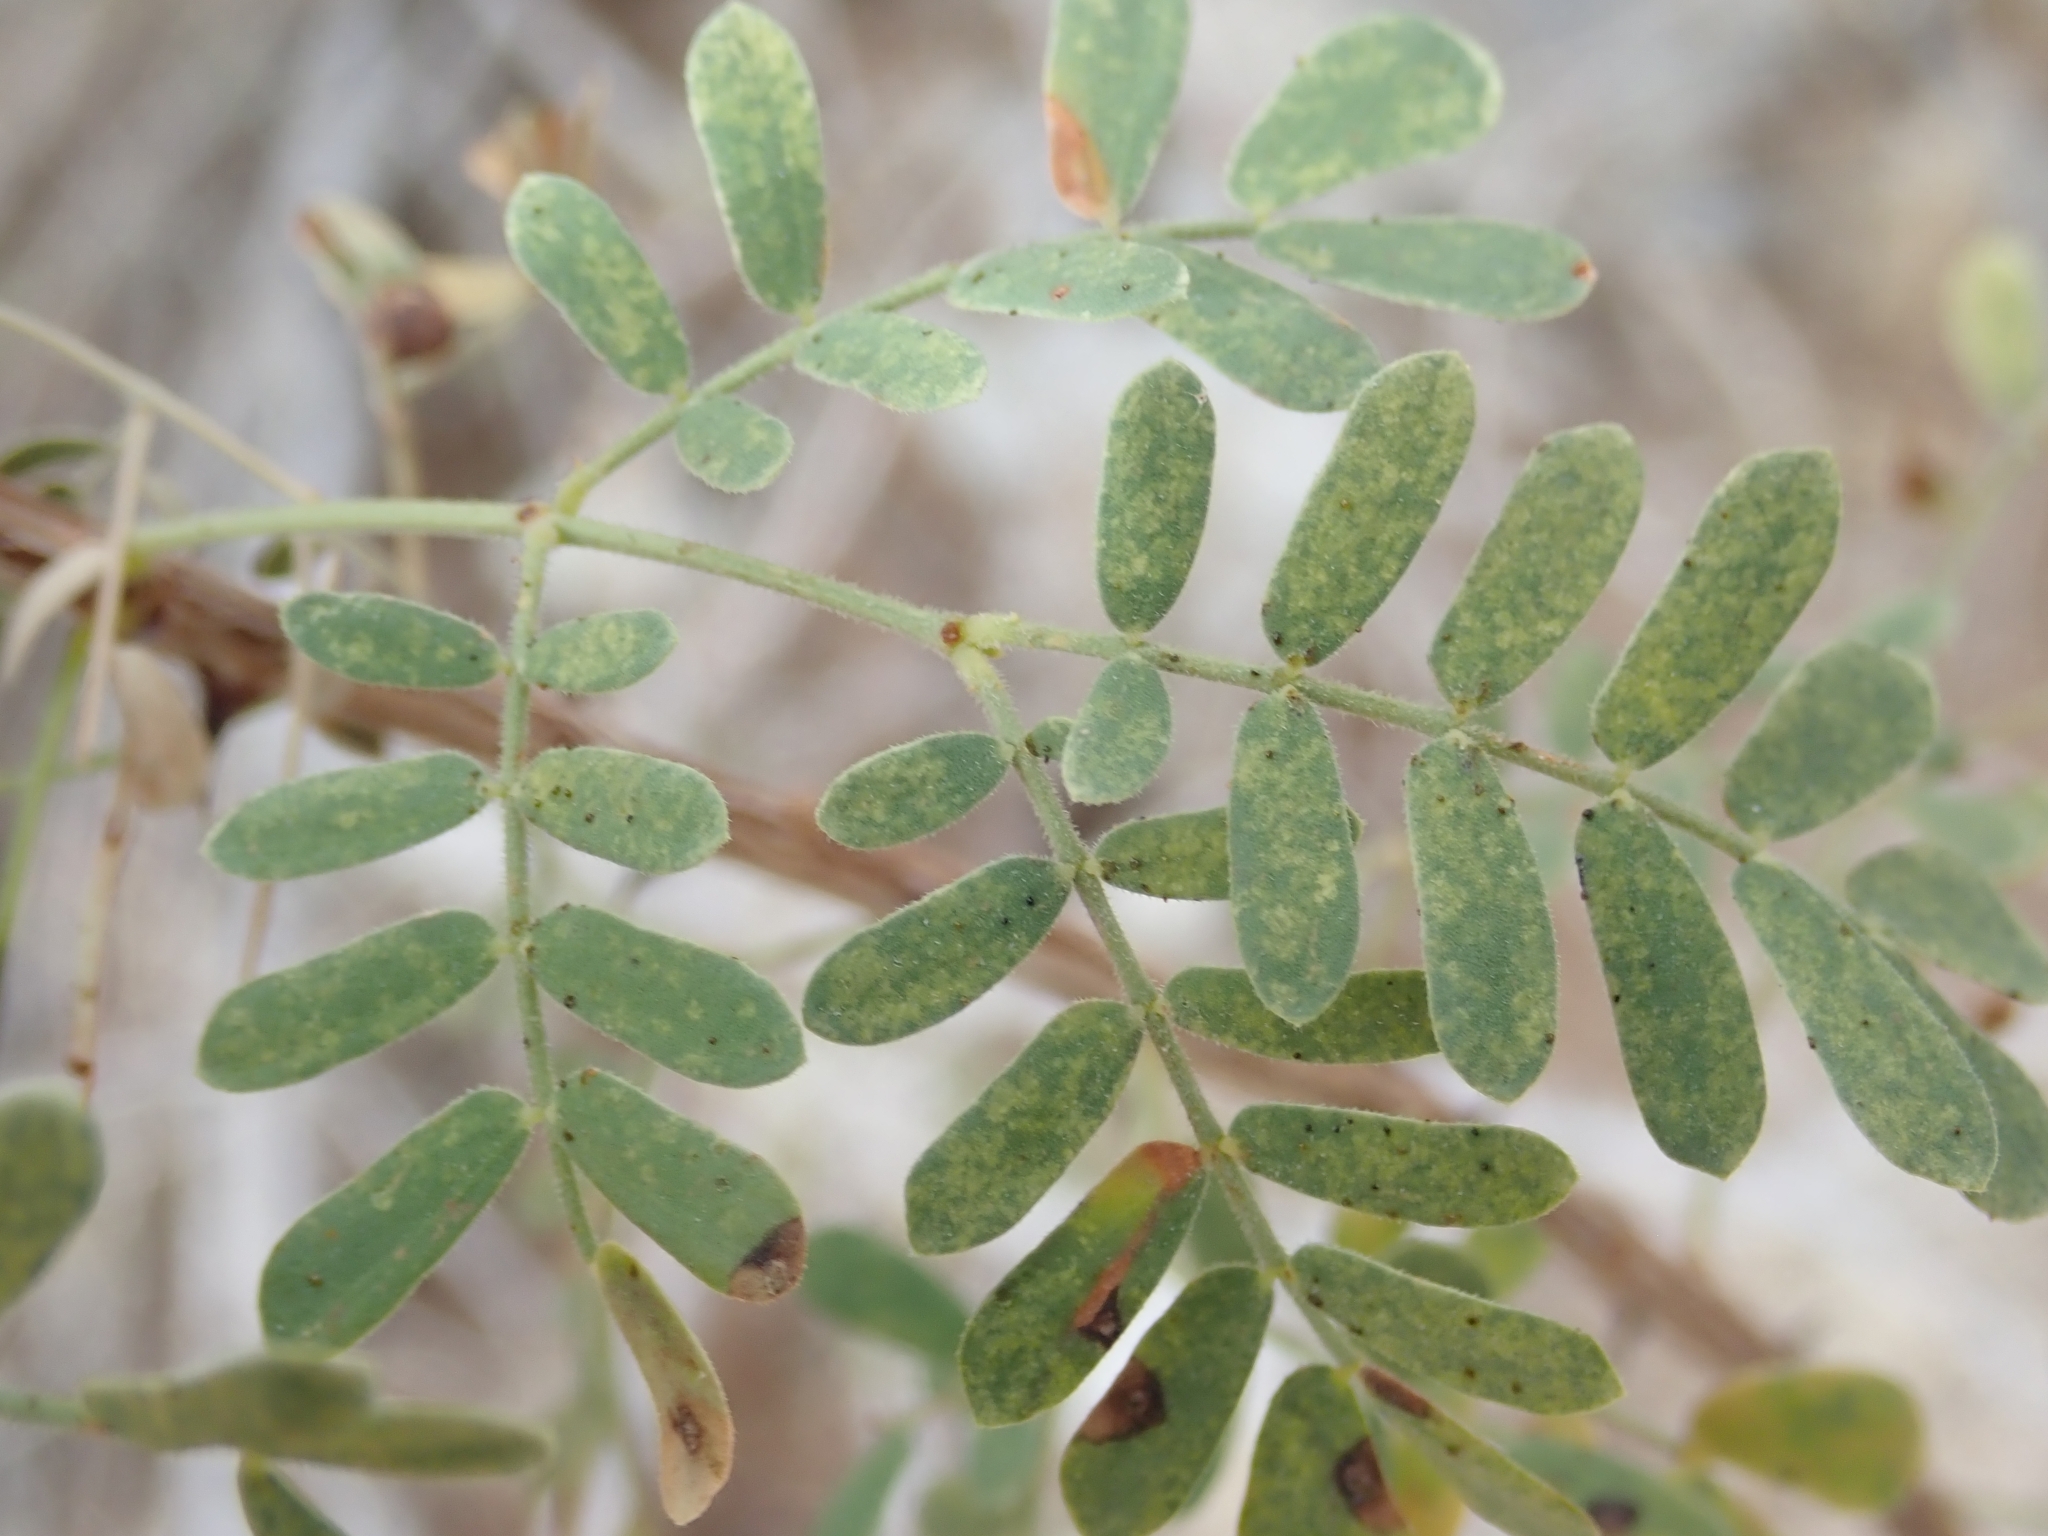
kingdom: Plantae
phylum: Tracheophyta
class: Magnoliopsida
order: Fabales
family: Fabaceae
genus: Senegalia
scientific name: Senegalia greggii
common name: Texas-mimosa
